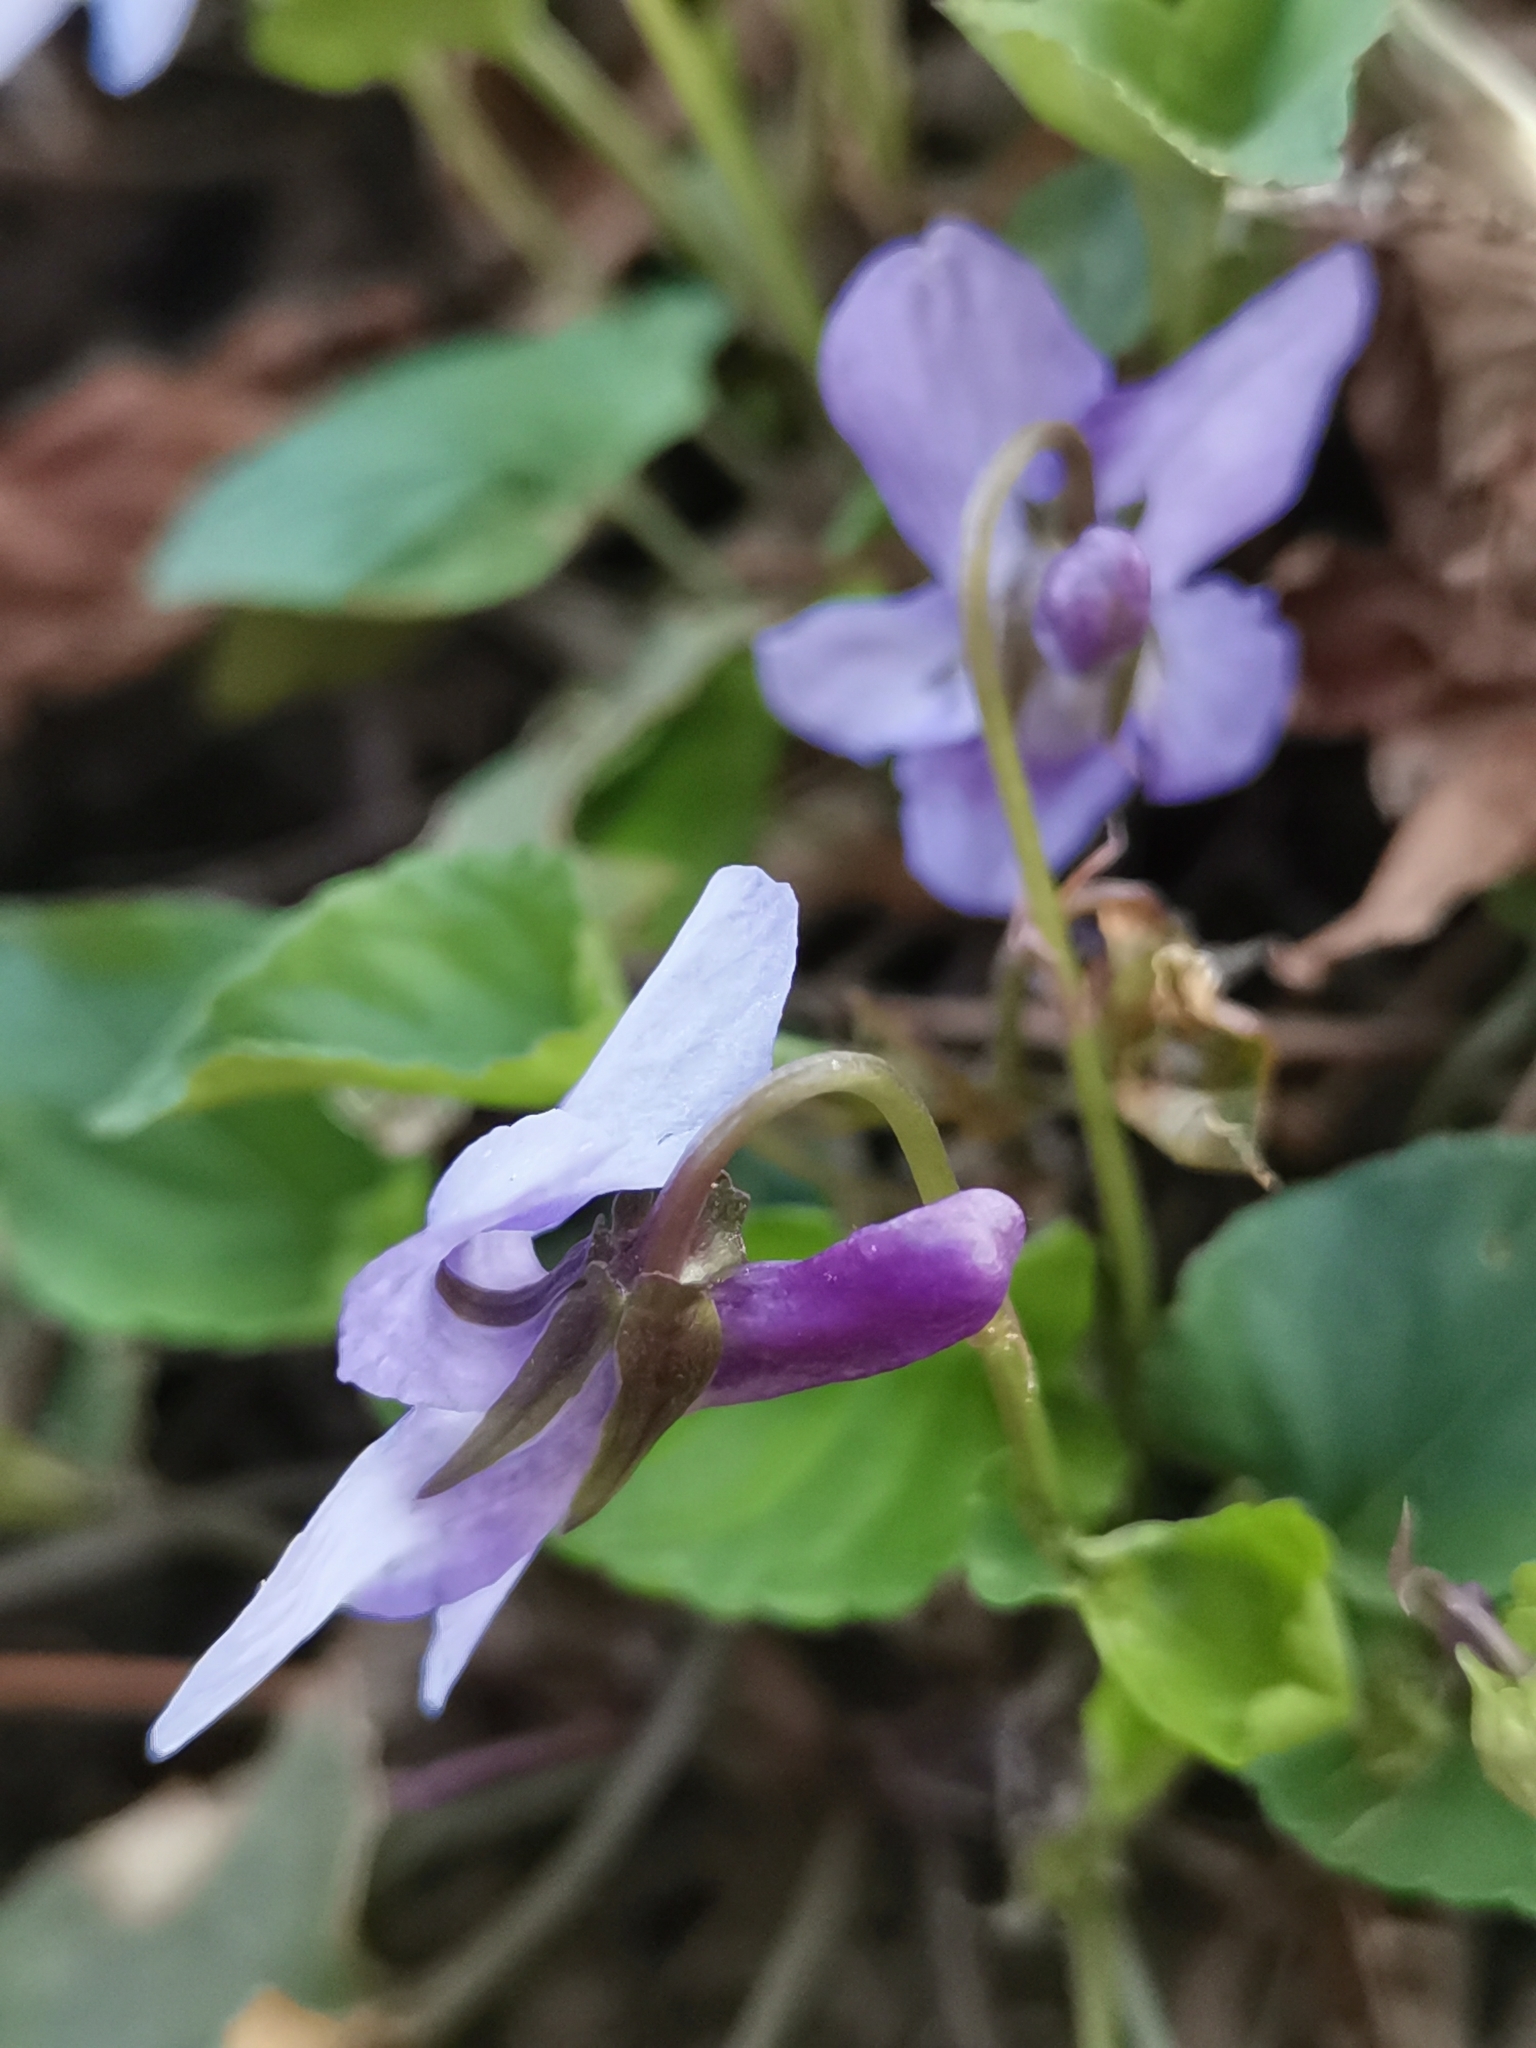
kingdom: Plantae
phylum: Tracheophyta
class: Magnoliopsida
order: Malpighiales
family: Violaceae
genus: Viola
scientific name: Viola reichenbachiana
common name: Early dog-violet
